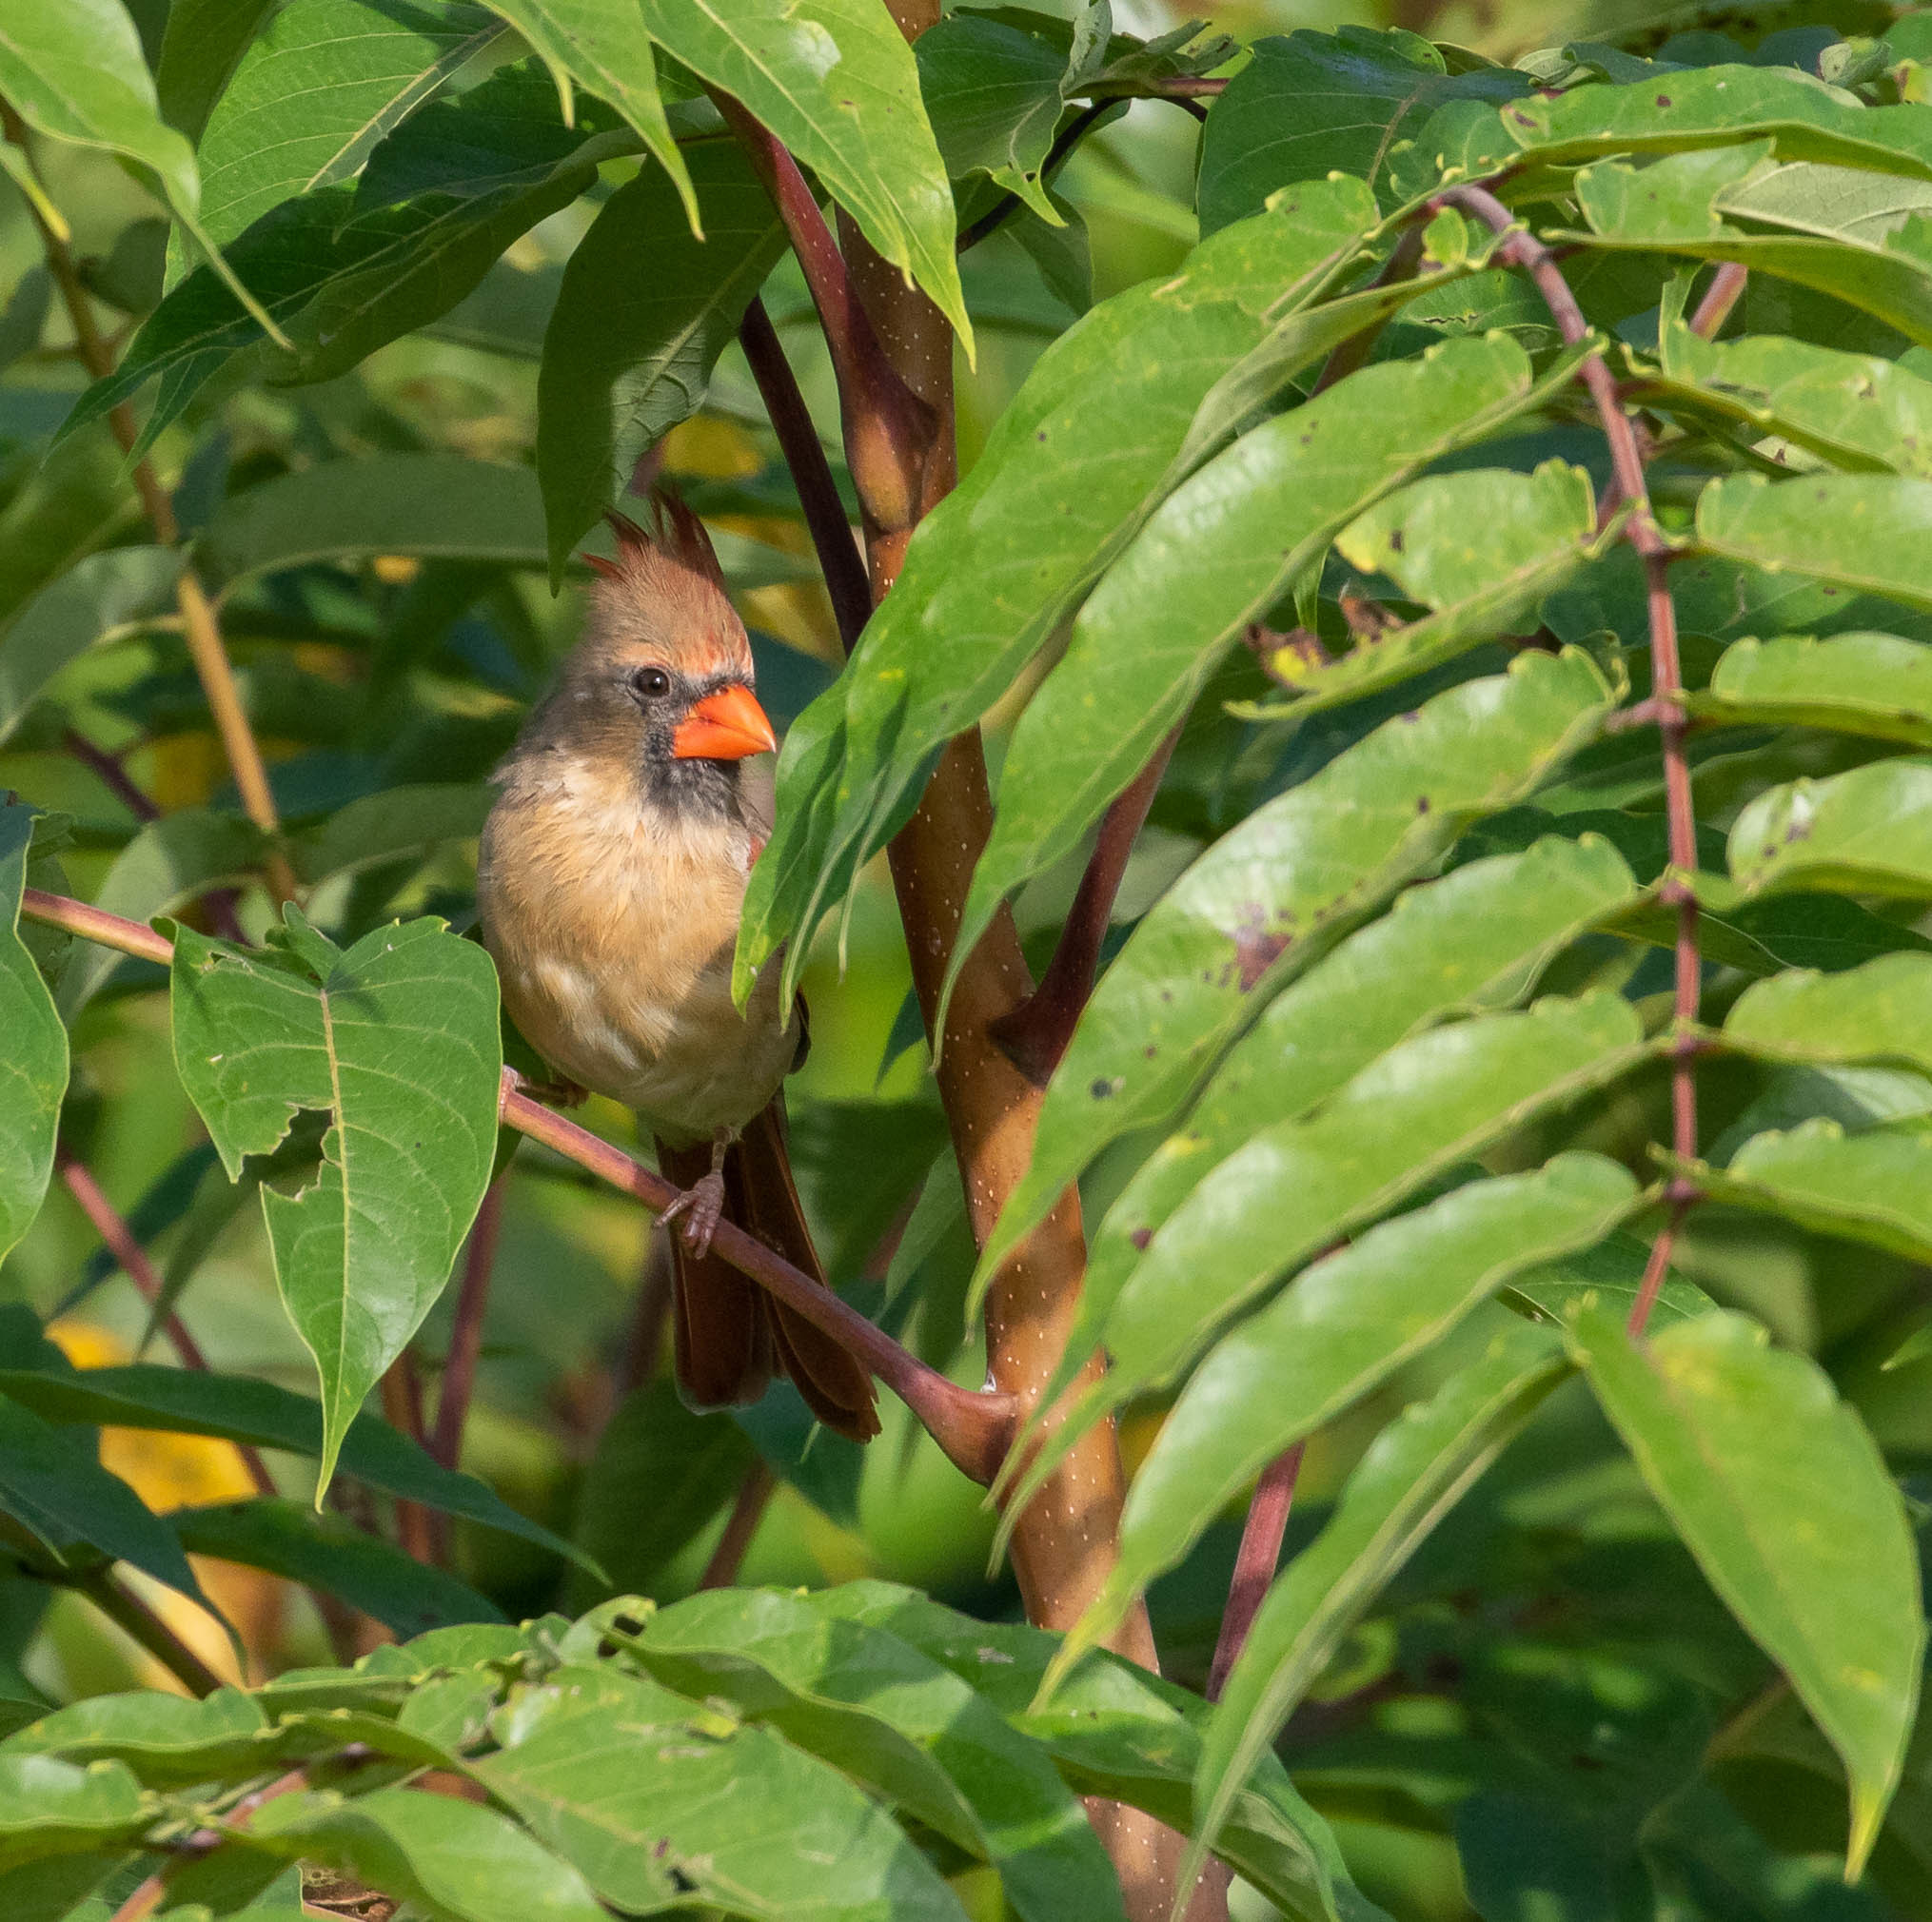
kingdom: Animalia
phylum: Chordata
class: Aves
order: Passeriformes
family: Cardinalidae
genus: Cardinalis
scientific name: Cardinalis cardinalis
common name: Northern cardinal
